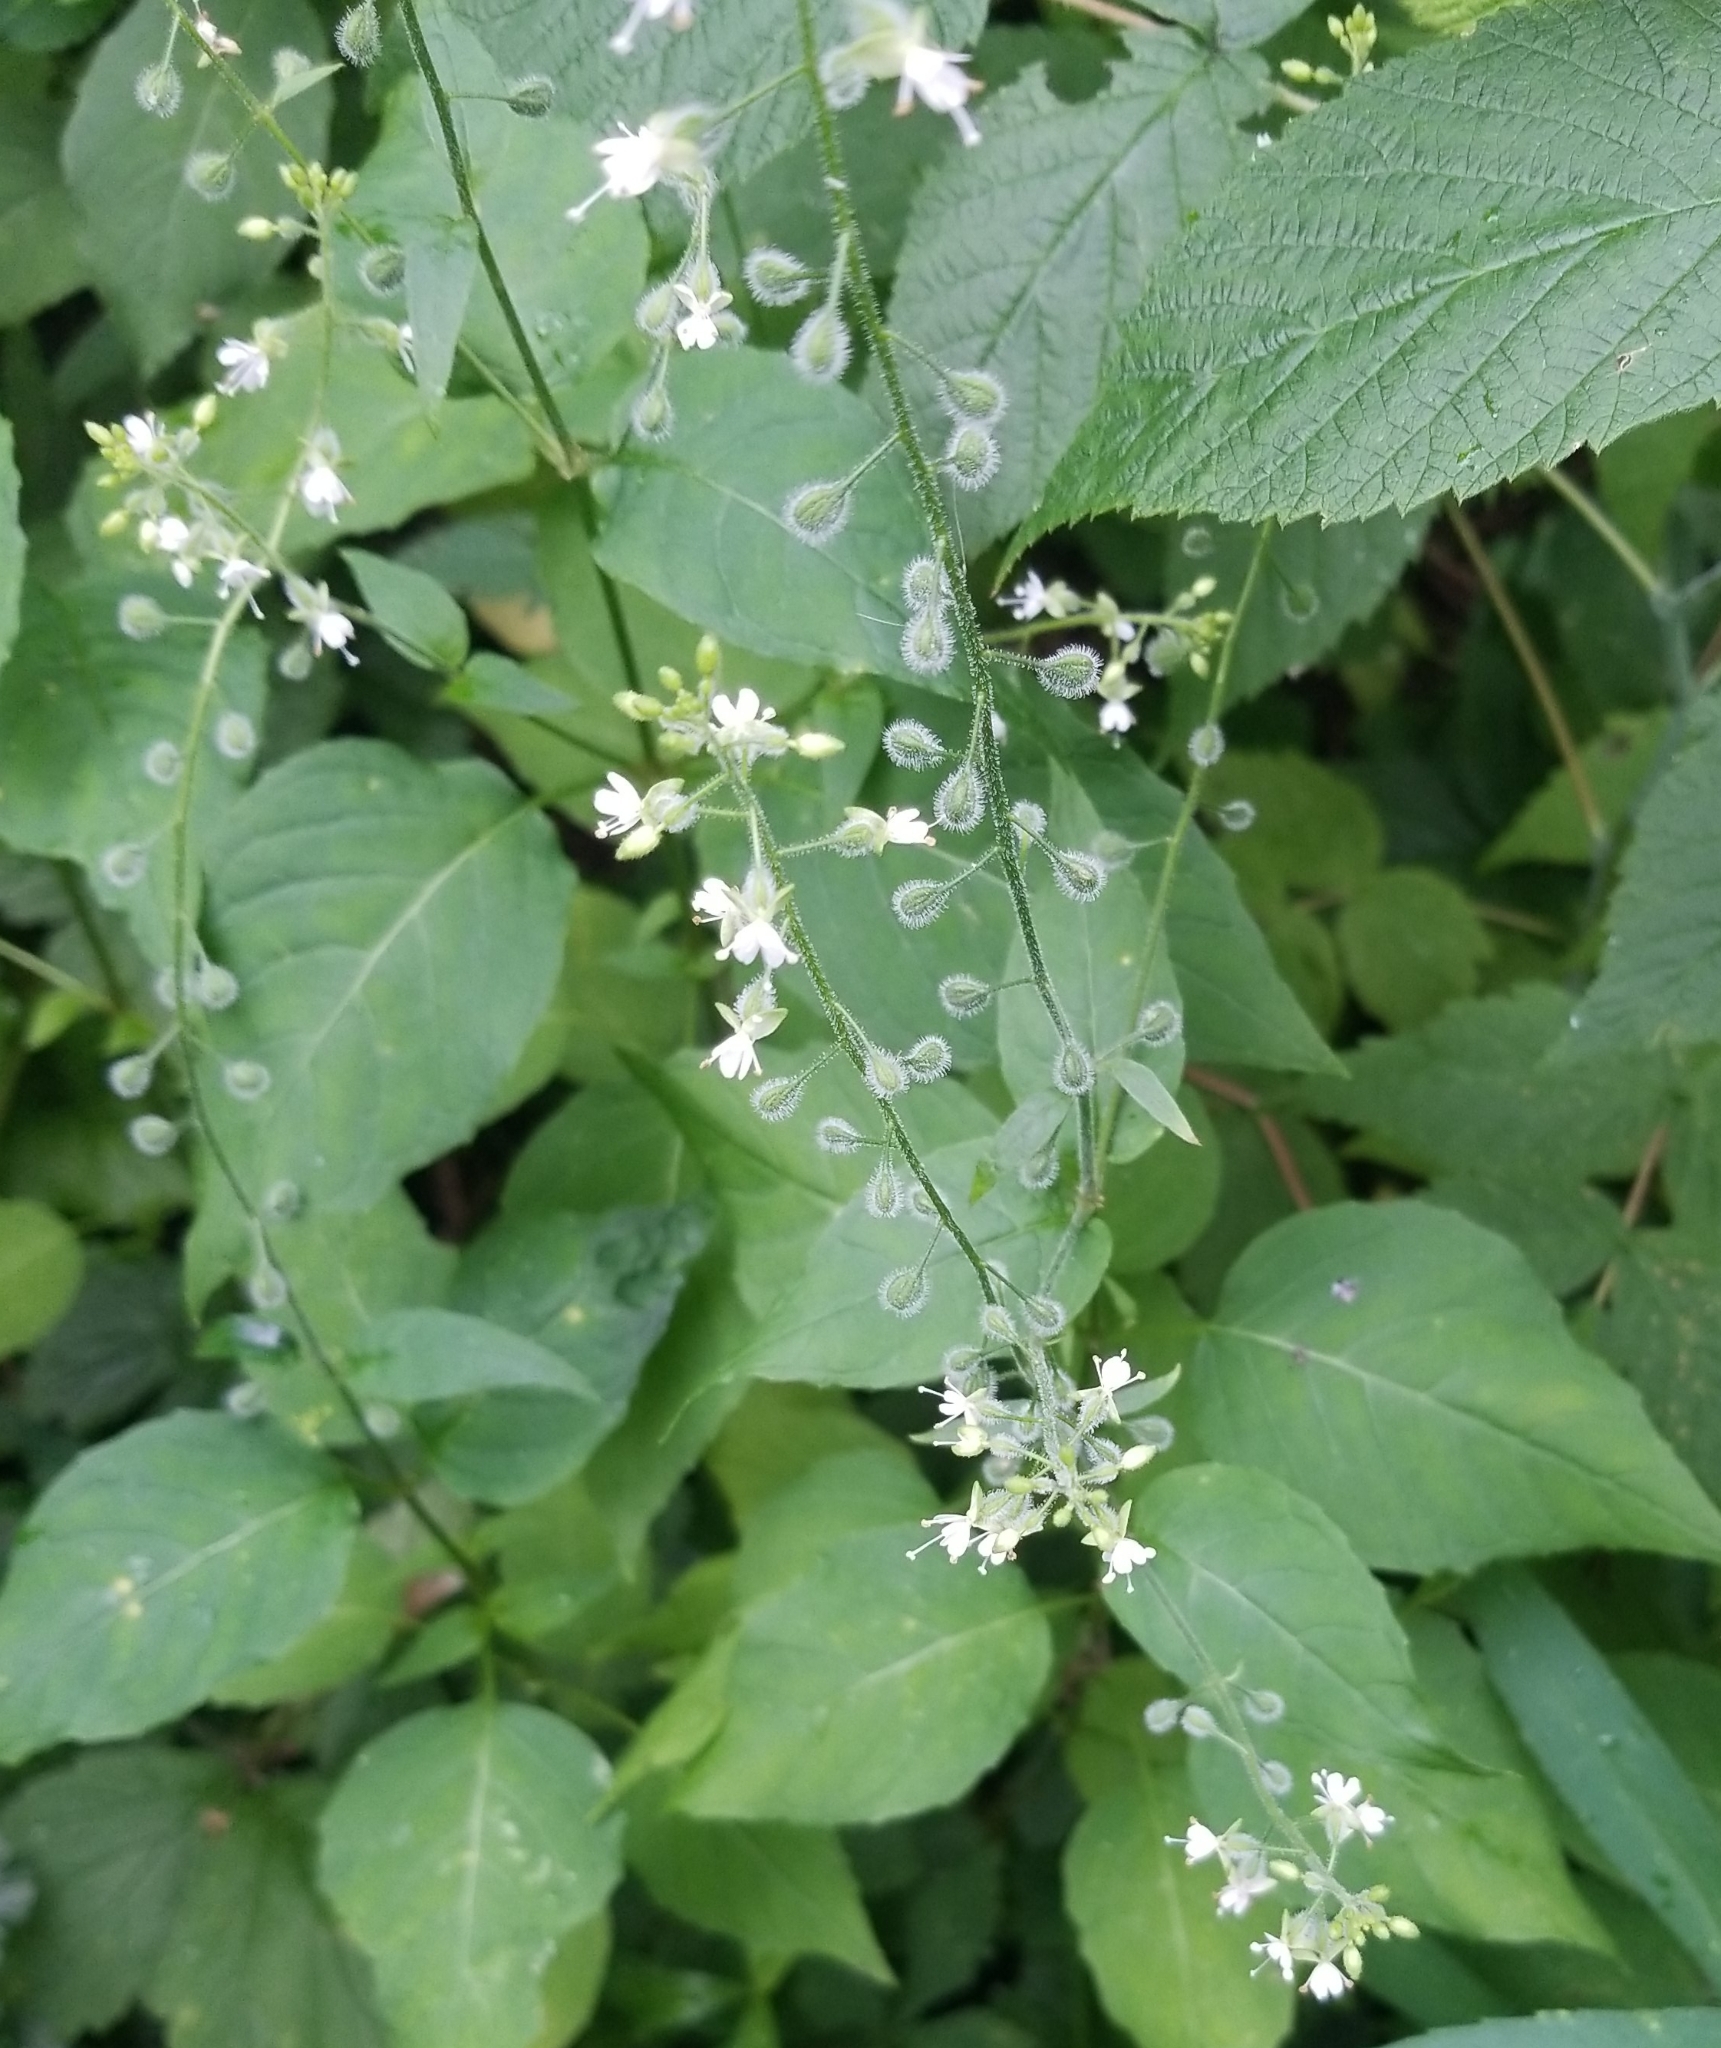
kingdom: Plantae
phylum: Tracheophyta
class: Magnoliopsida
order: Myrtales
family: Onagraceae
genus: Circaea
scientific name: Circaea canadensis
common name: Broad-leaved enchanter's nightshade
